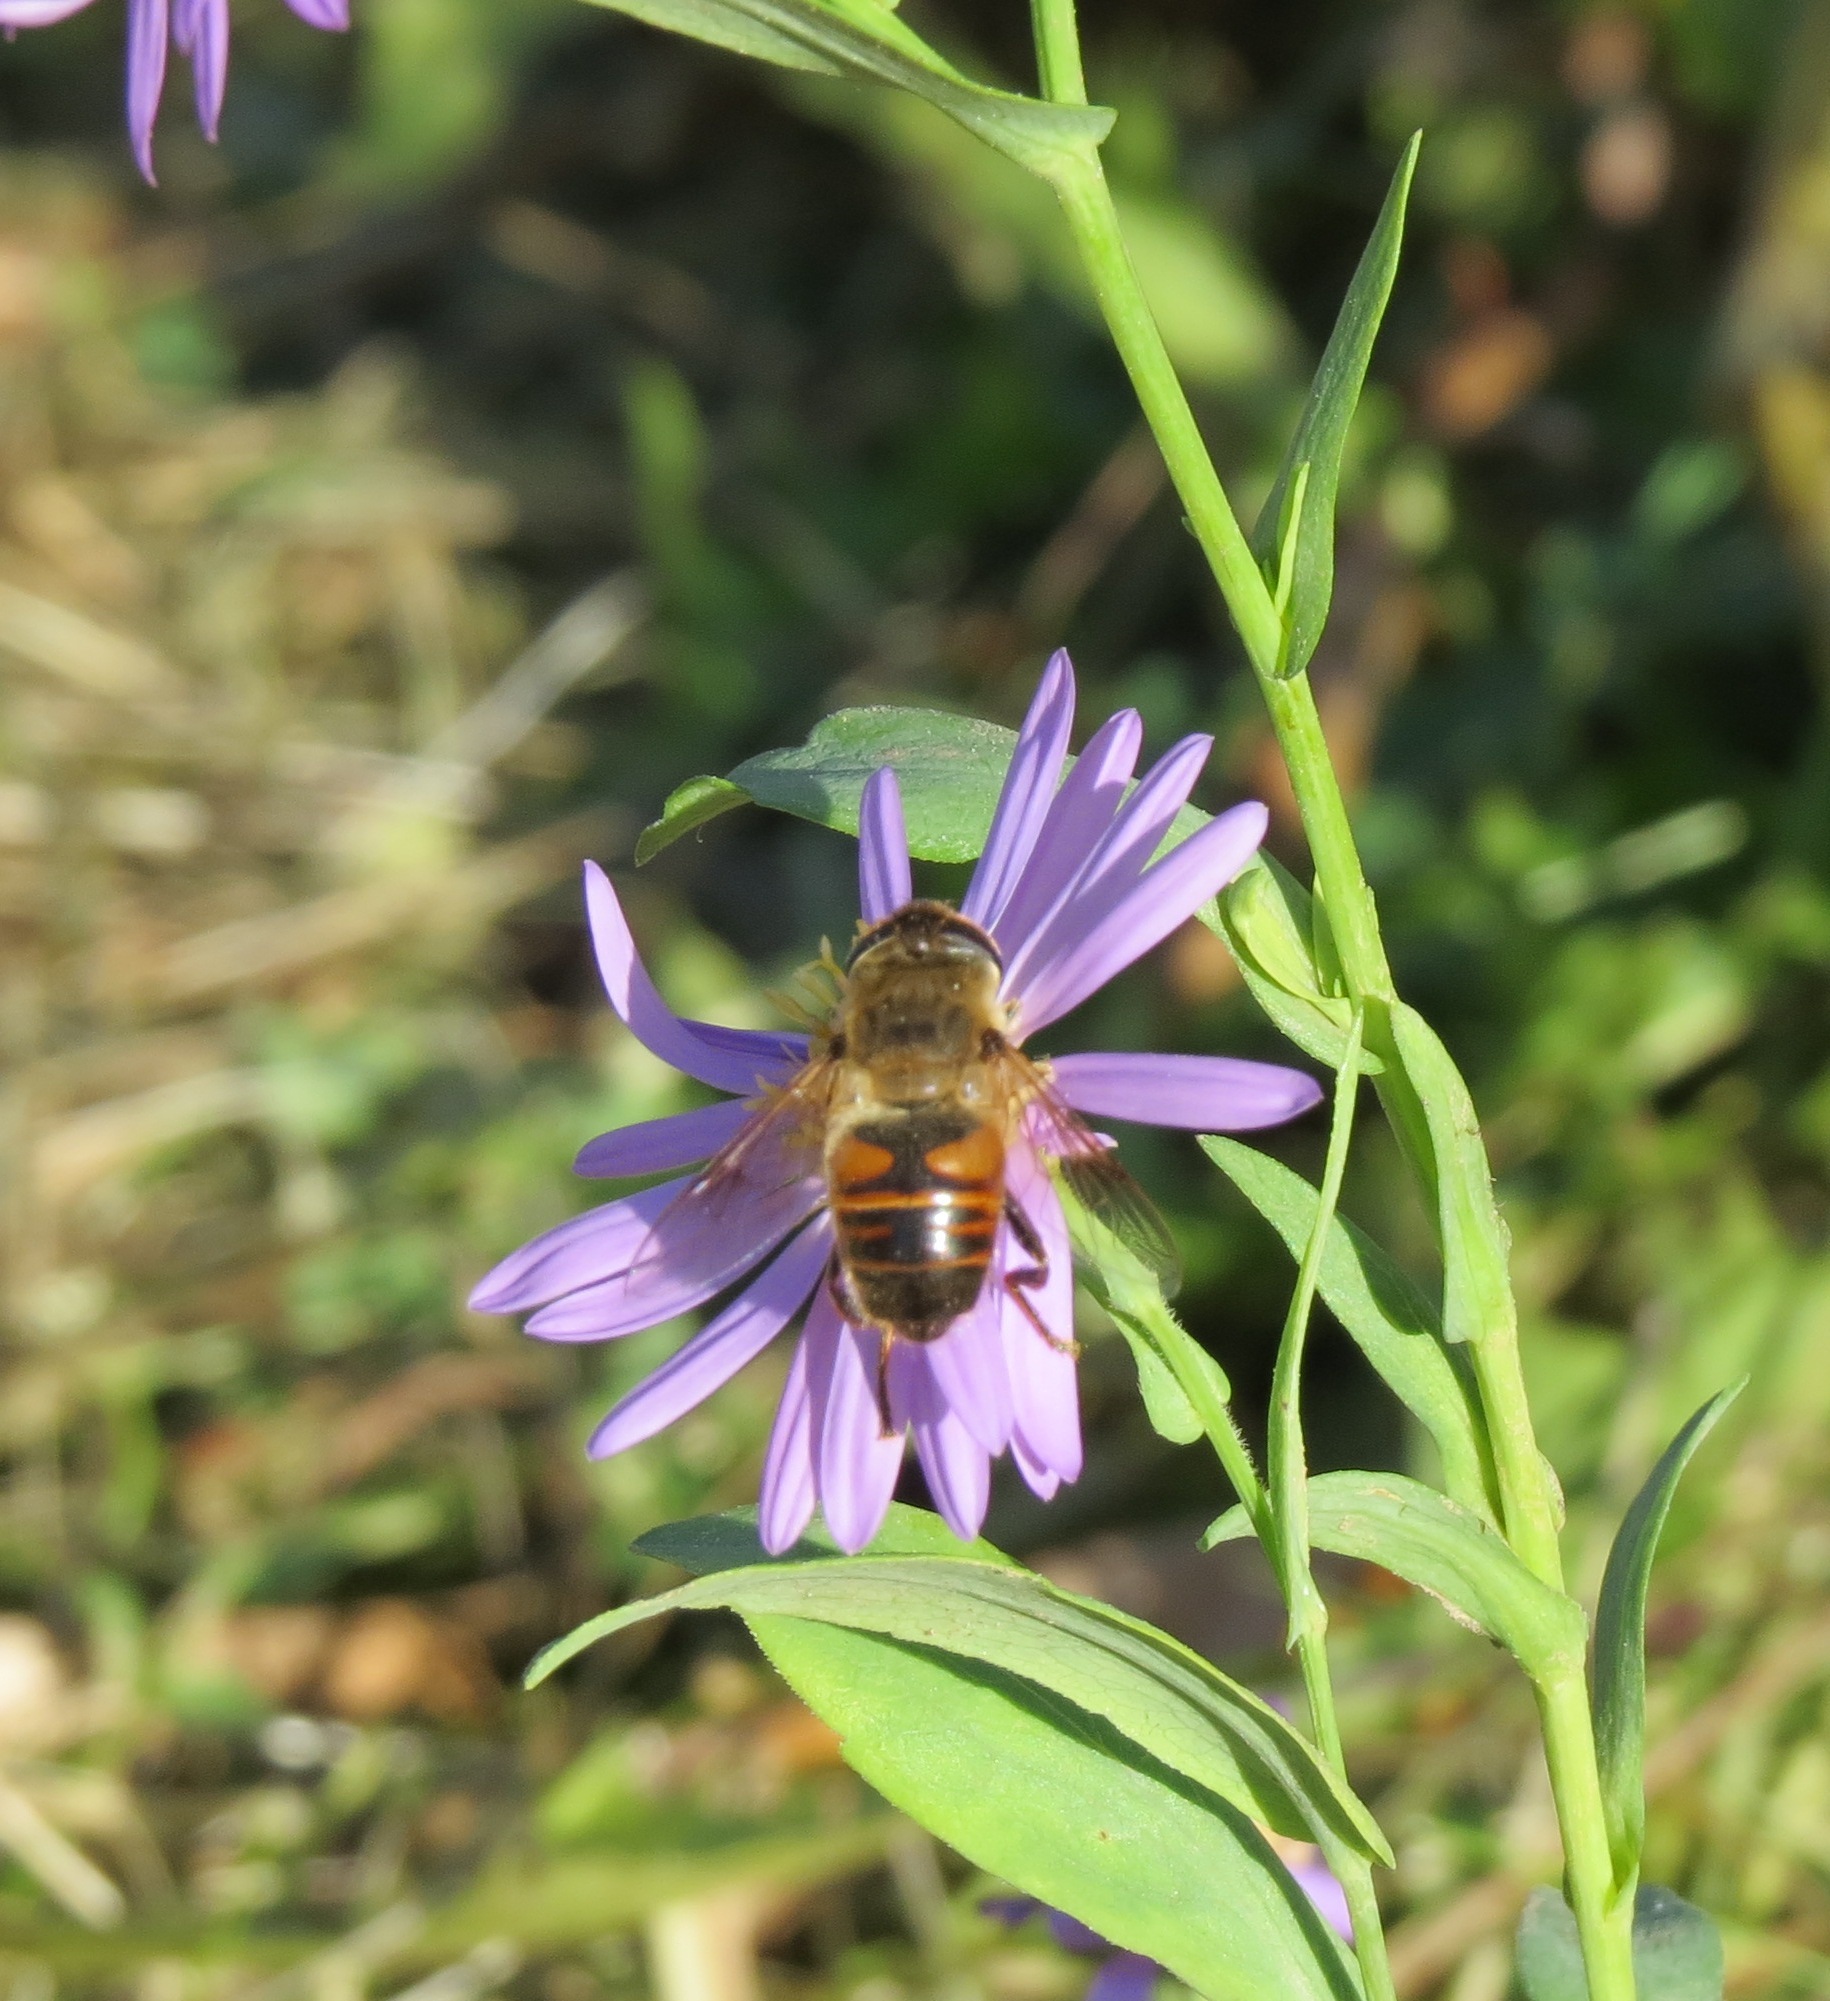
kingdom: Animalia
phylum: Arthropoda
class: Insecta
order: Diptera
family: Syrphidae
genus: Eristalis
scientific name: Eristalis tenax
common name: Drone fly
